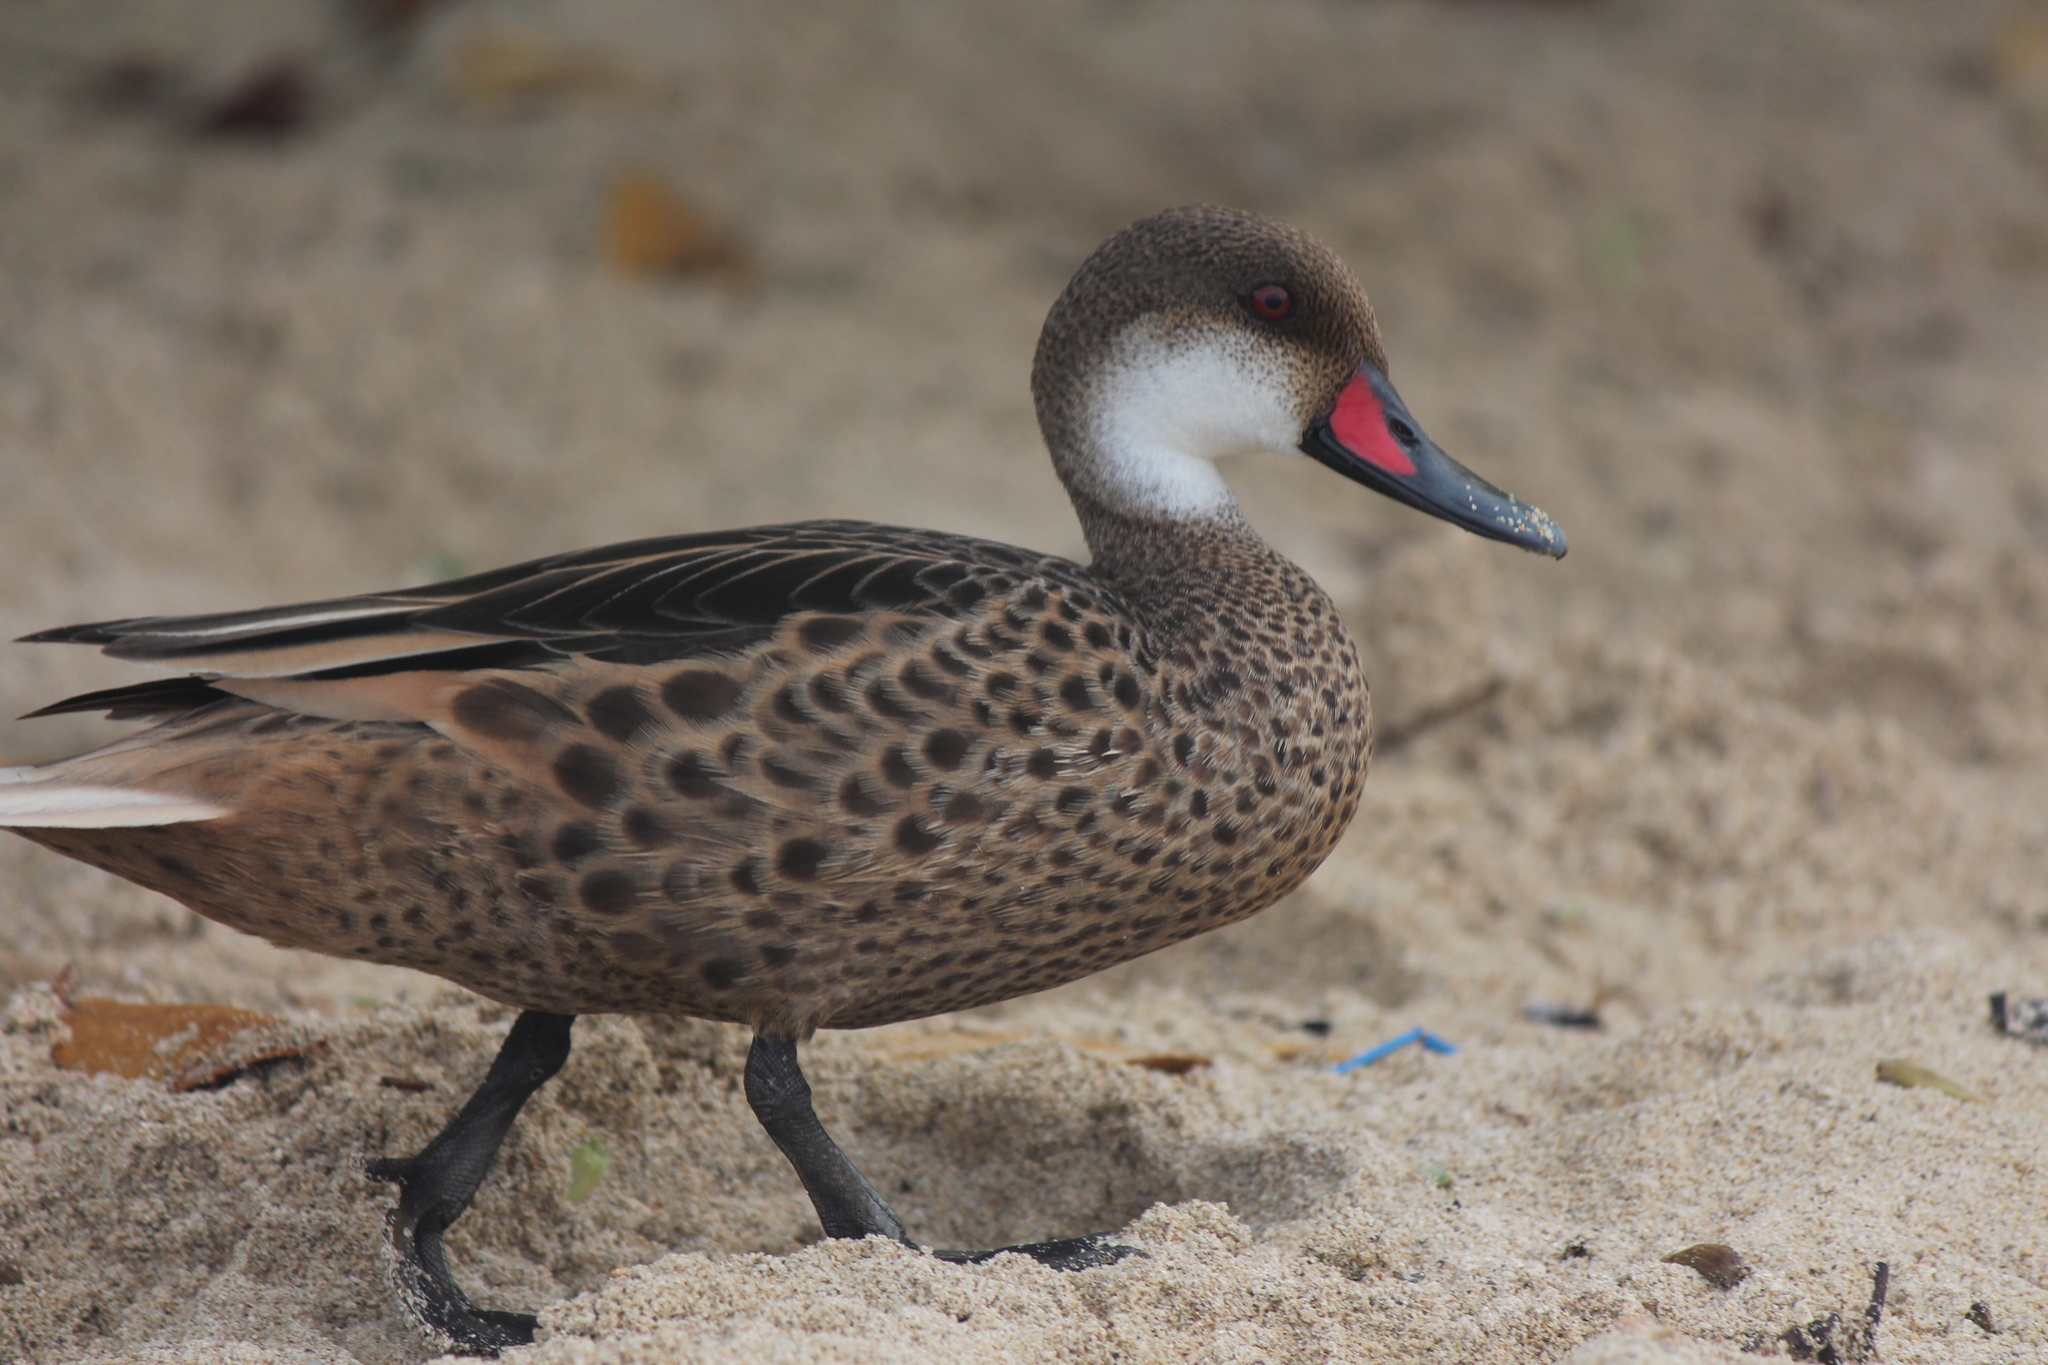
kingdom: Animalia
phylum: Chordata
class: Aves
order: Anseriformes
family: Anatidae
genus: Anas
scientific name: Anas bahamensis
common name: White-cheeked pintail
